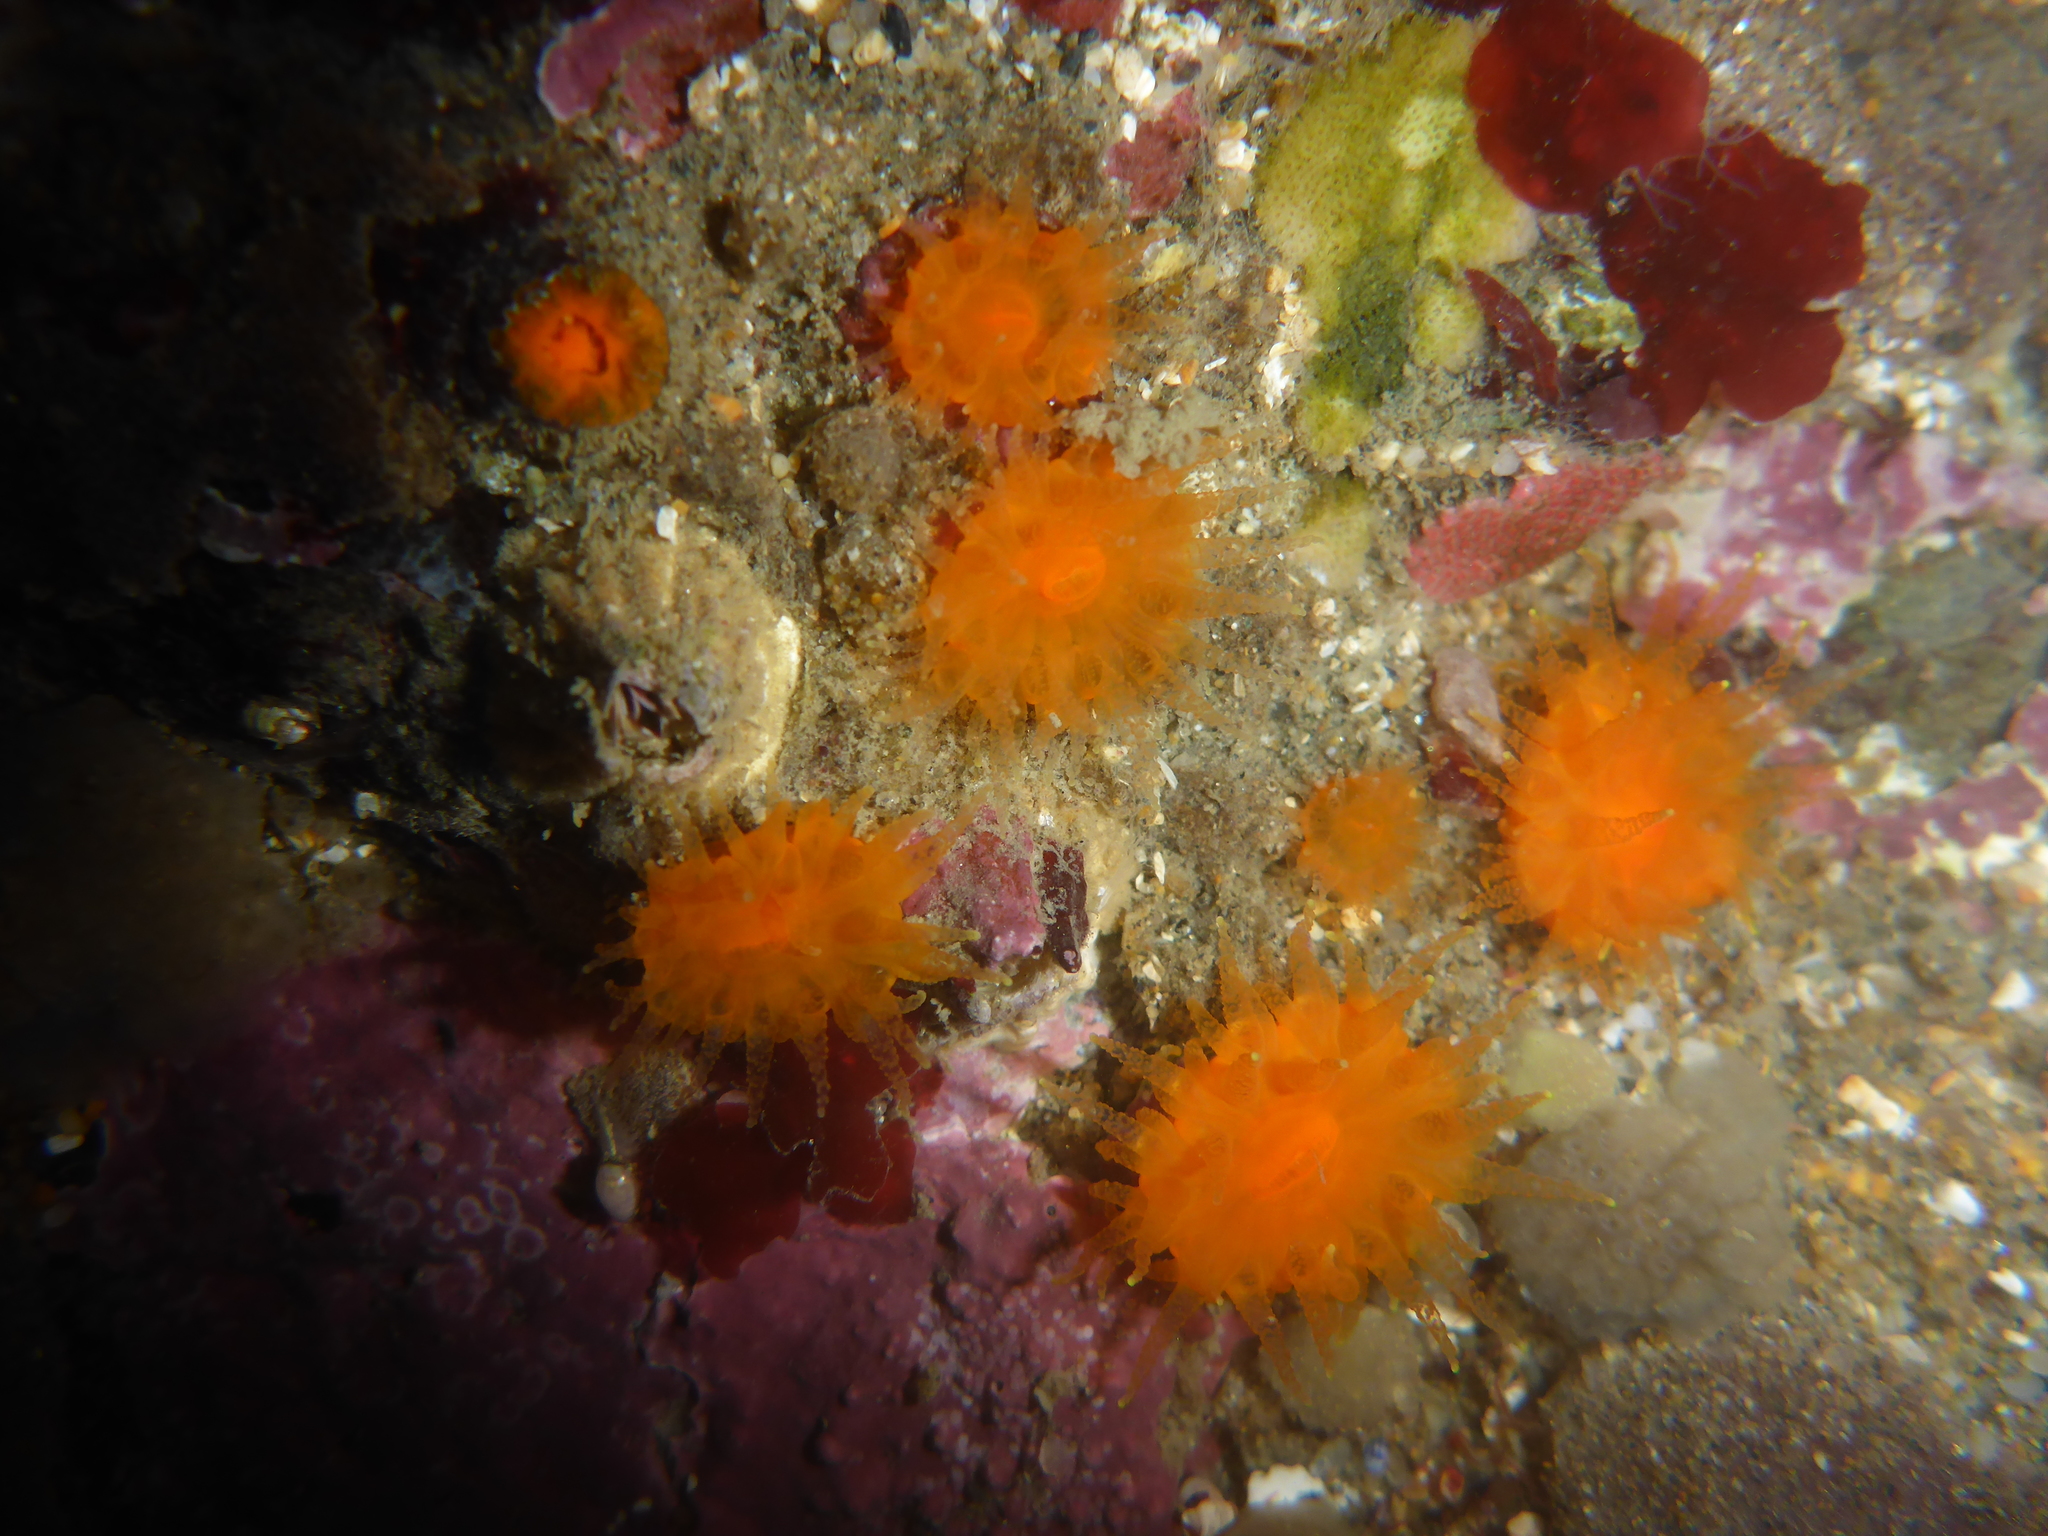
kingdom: Animalia
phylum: Cnidaria
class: Anthozoa
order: Scleractinia
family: Dendrophylliidae
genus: Balanophyllia
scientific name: Balanophyllia elegans
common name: Orange stony coral
